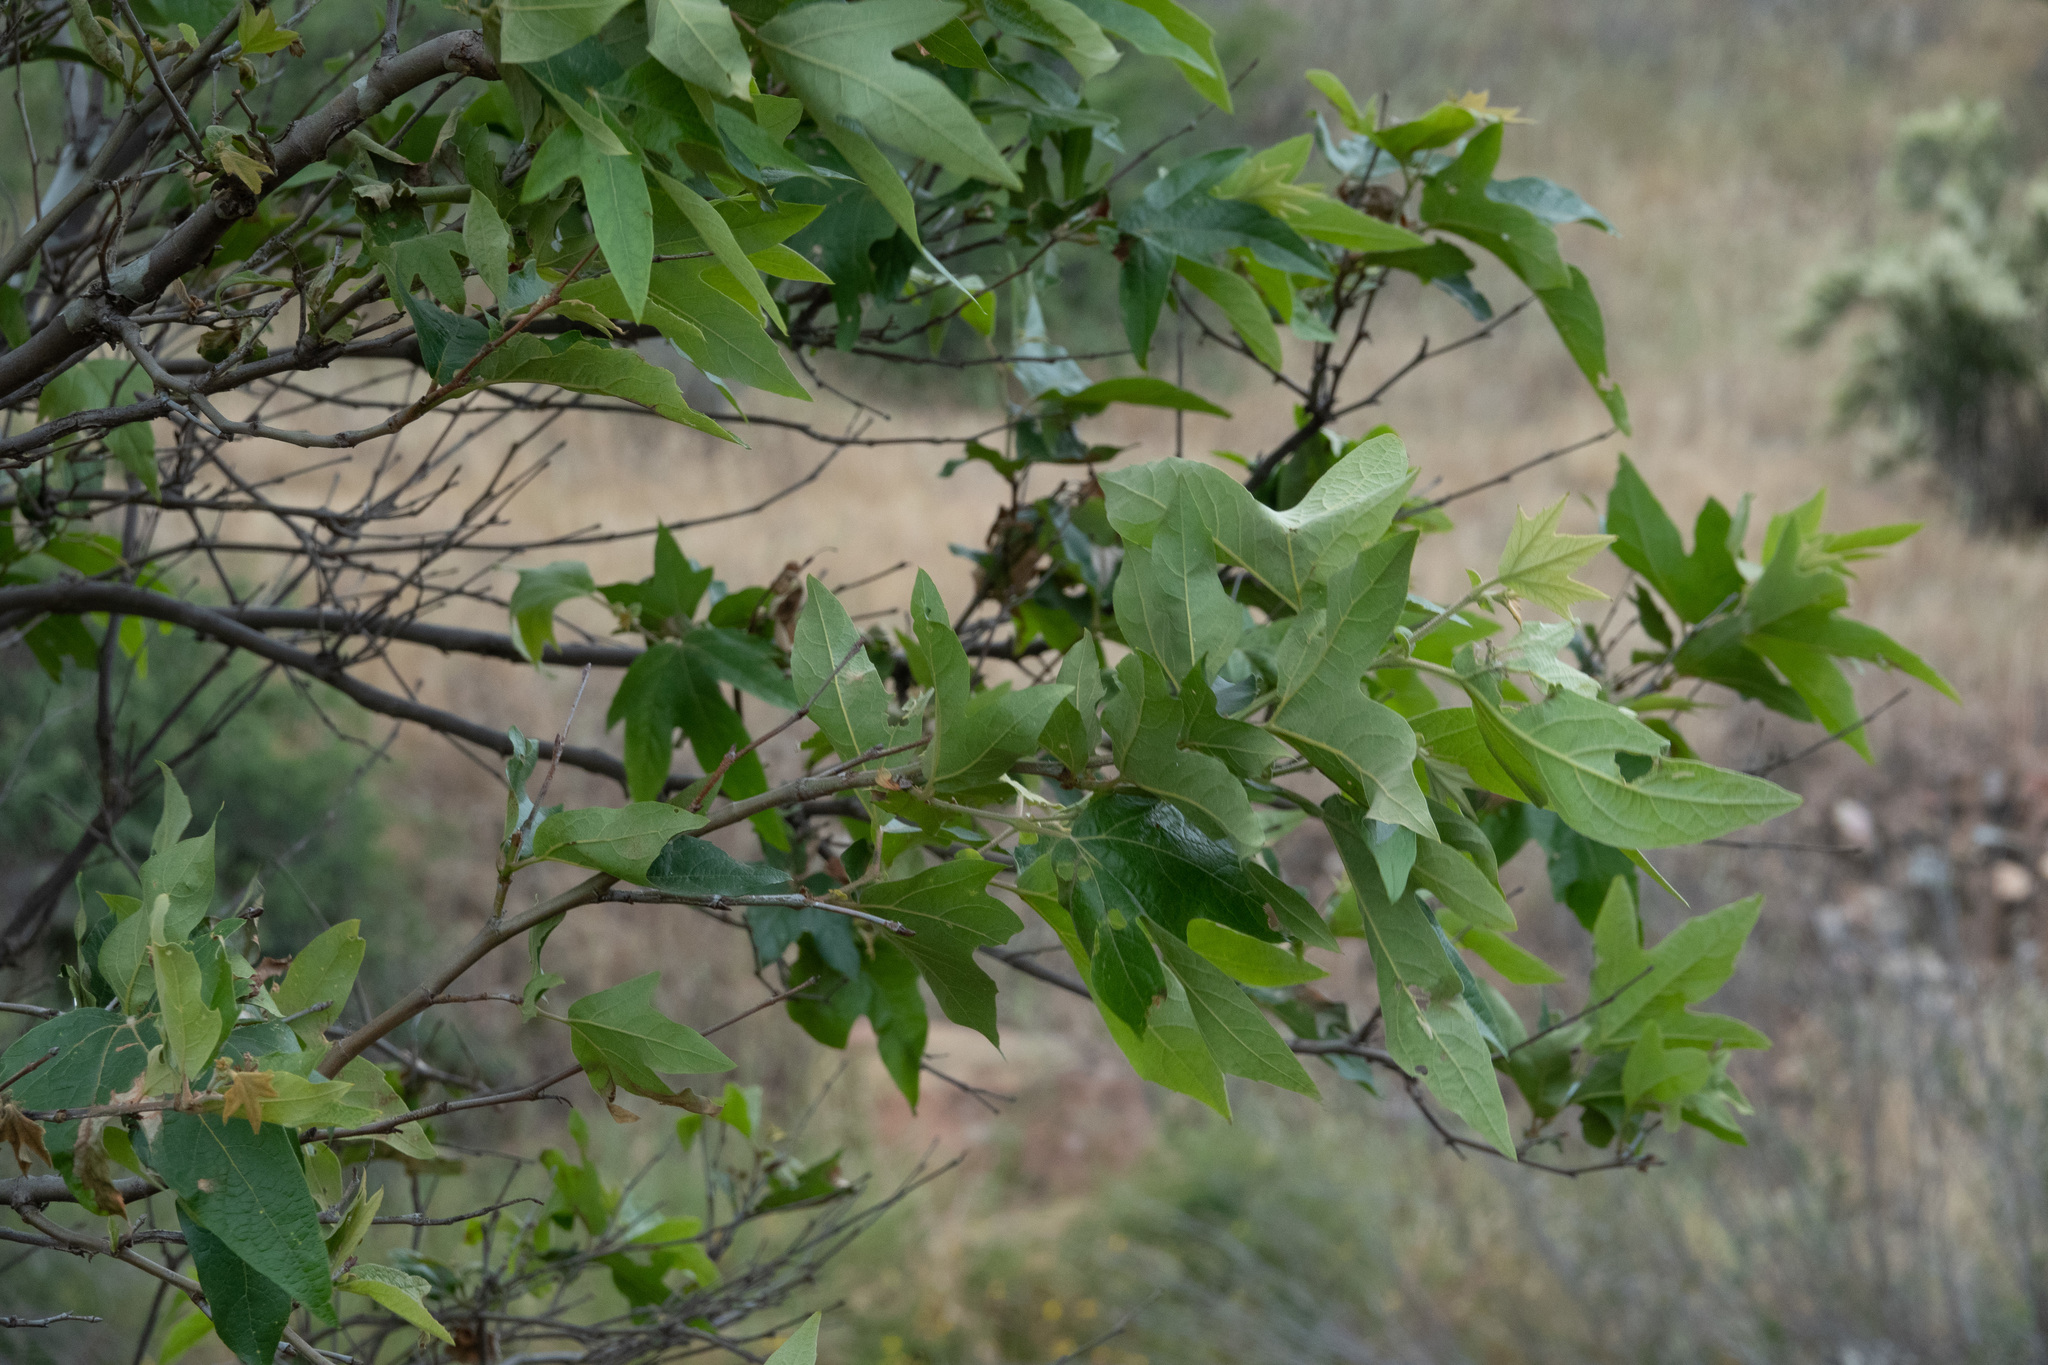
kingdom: Plantae
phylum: Tracheophyta
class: Magnoliopsida
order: Proteales
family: Platanaceae
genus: Platanus
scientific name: Platanus racemosa
